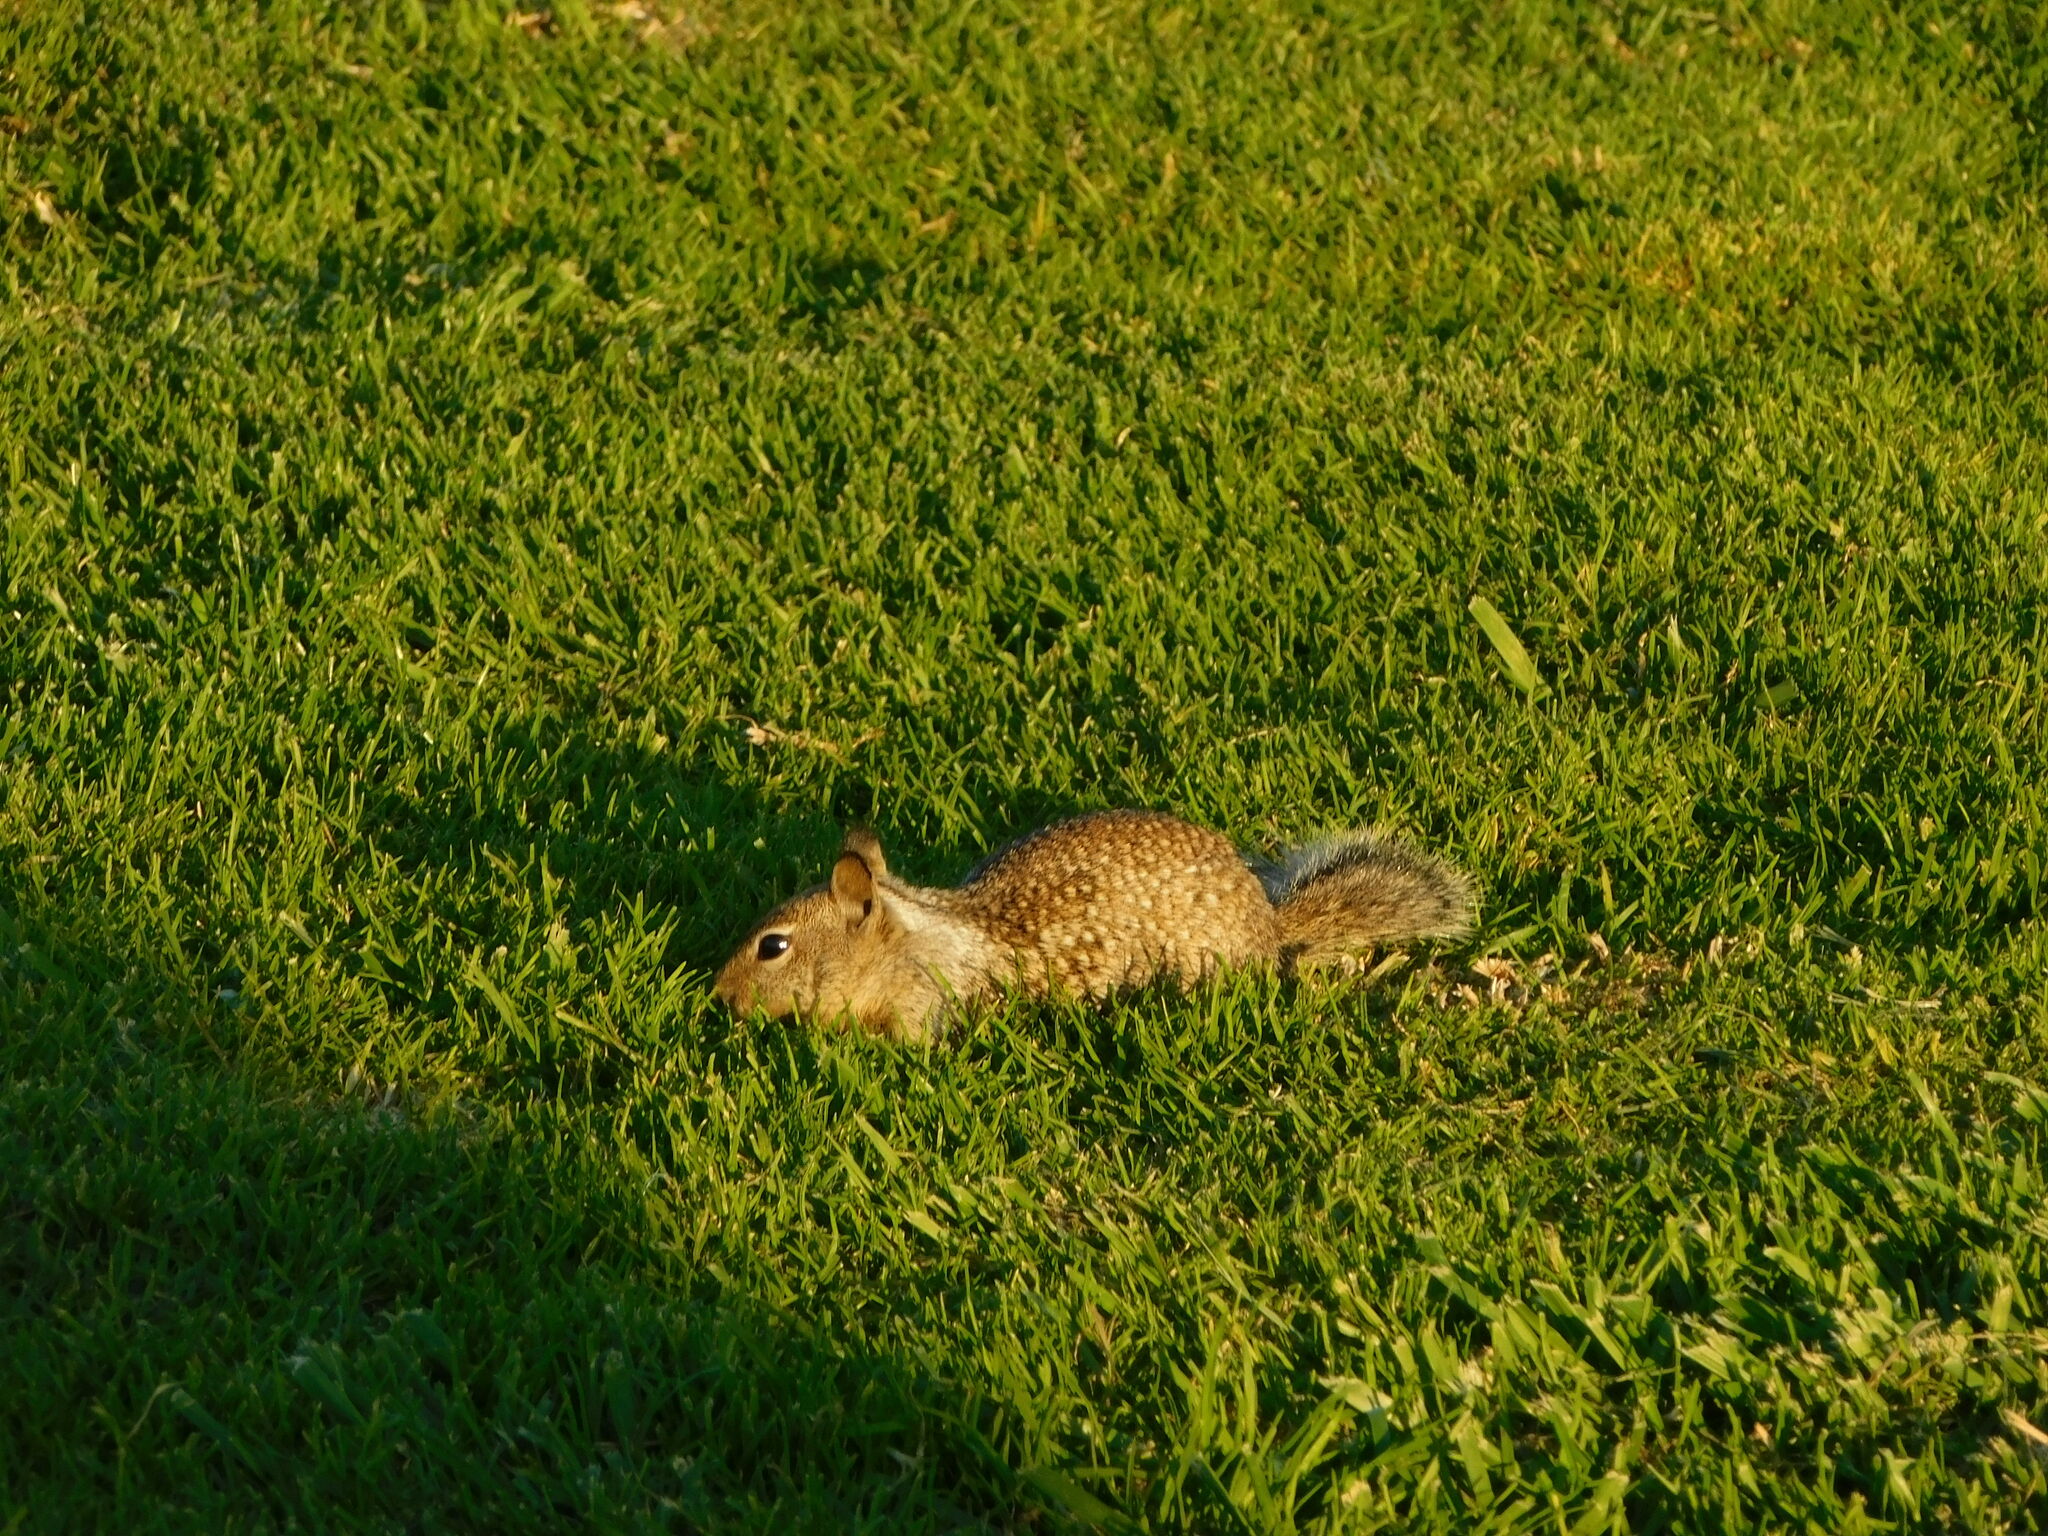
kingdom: Animalia
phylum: Chordata
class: Mammalia
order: Rodentia
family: Sciuridae
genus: Otospermophilus
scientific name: Otospermophilus beecheyi
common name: California ground squirrel
